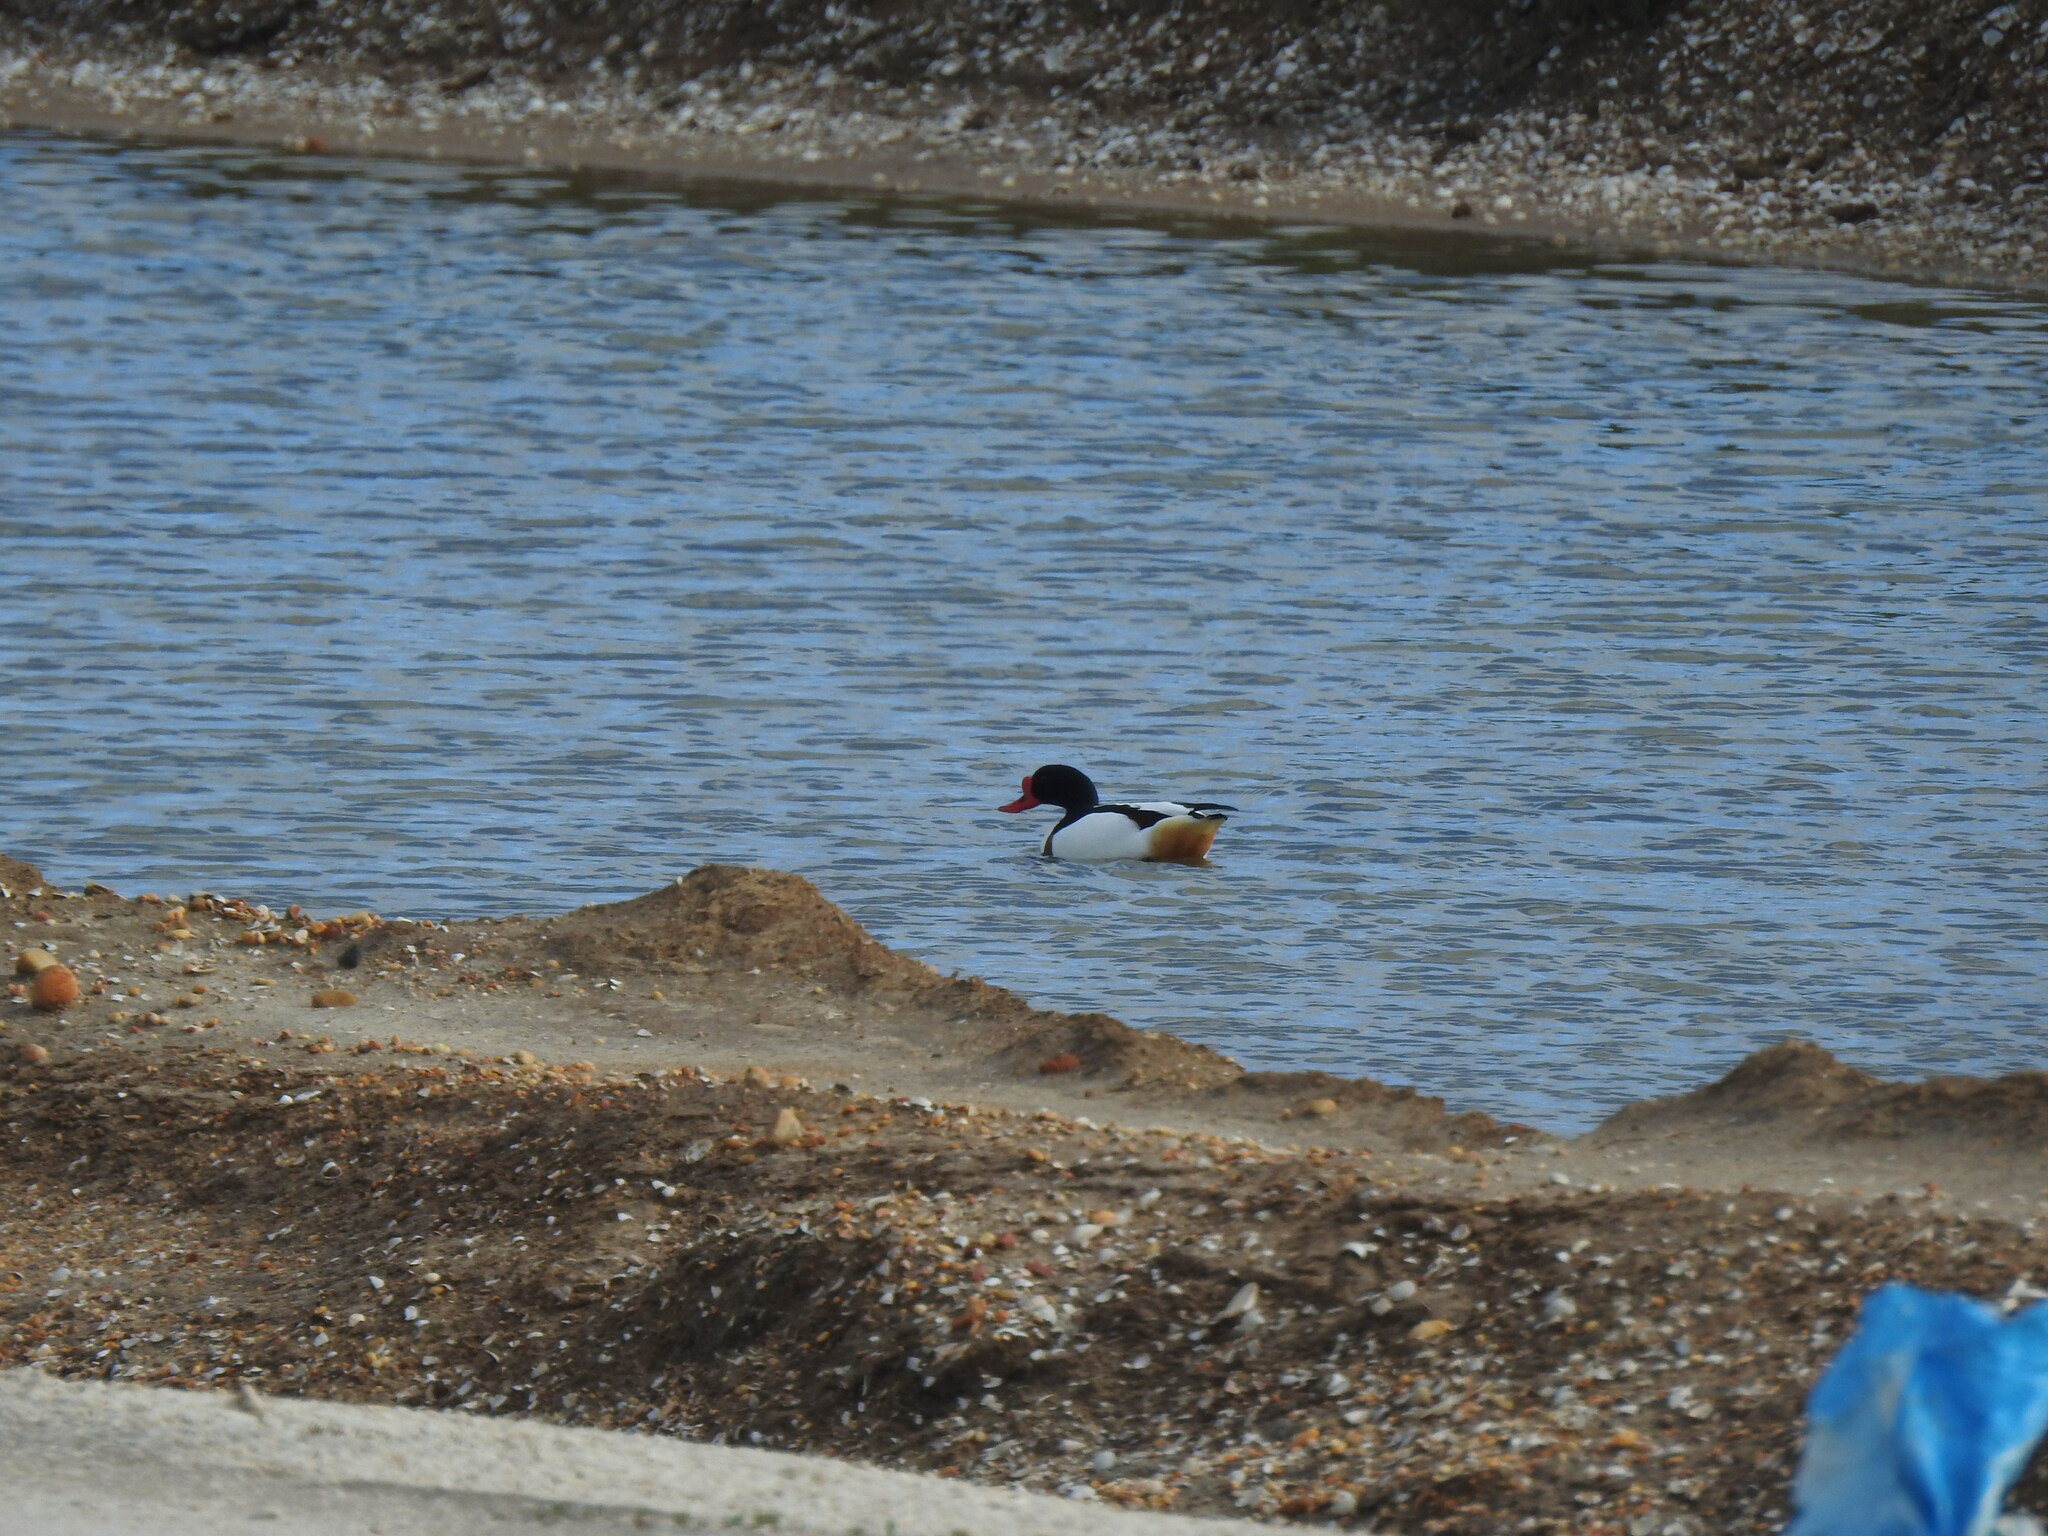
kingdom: Animalia
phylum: Chordata
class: Aves
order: Anseriformes
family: Anatidae
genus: Tadorna
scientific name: Tadorna tadorna
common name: Common shelduck
